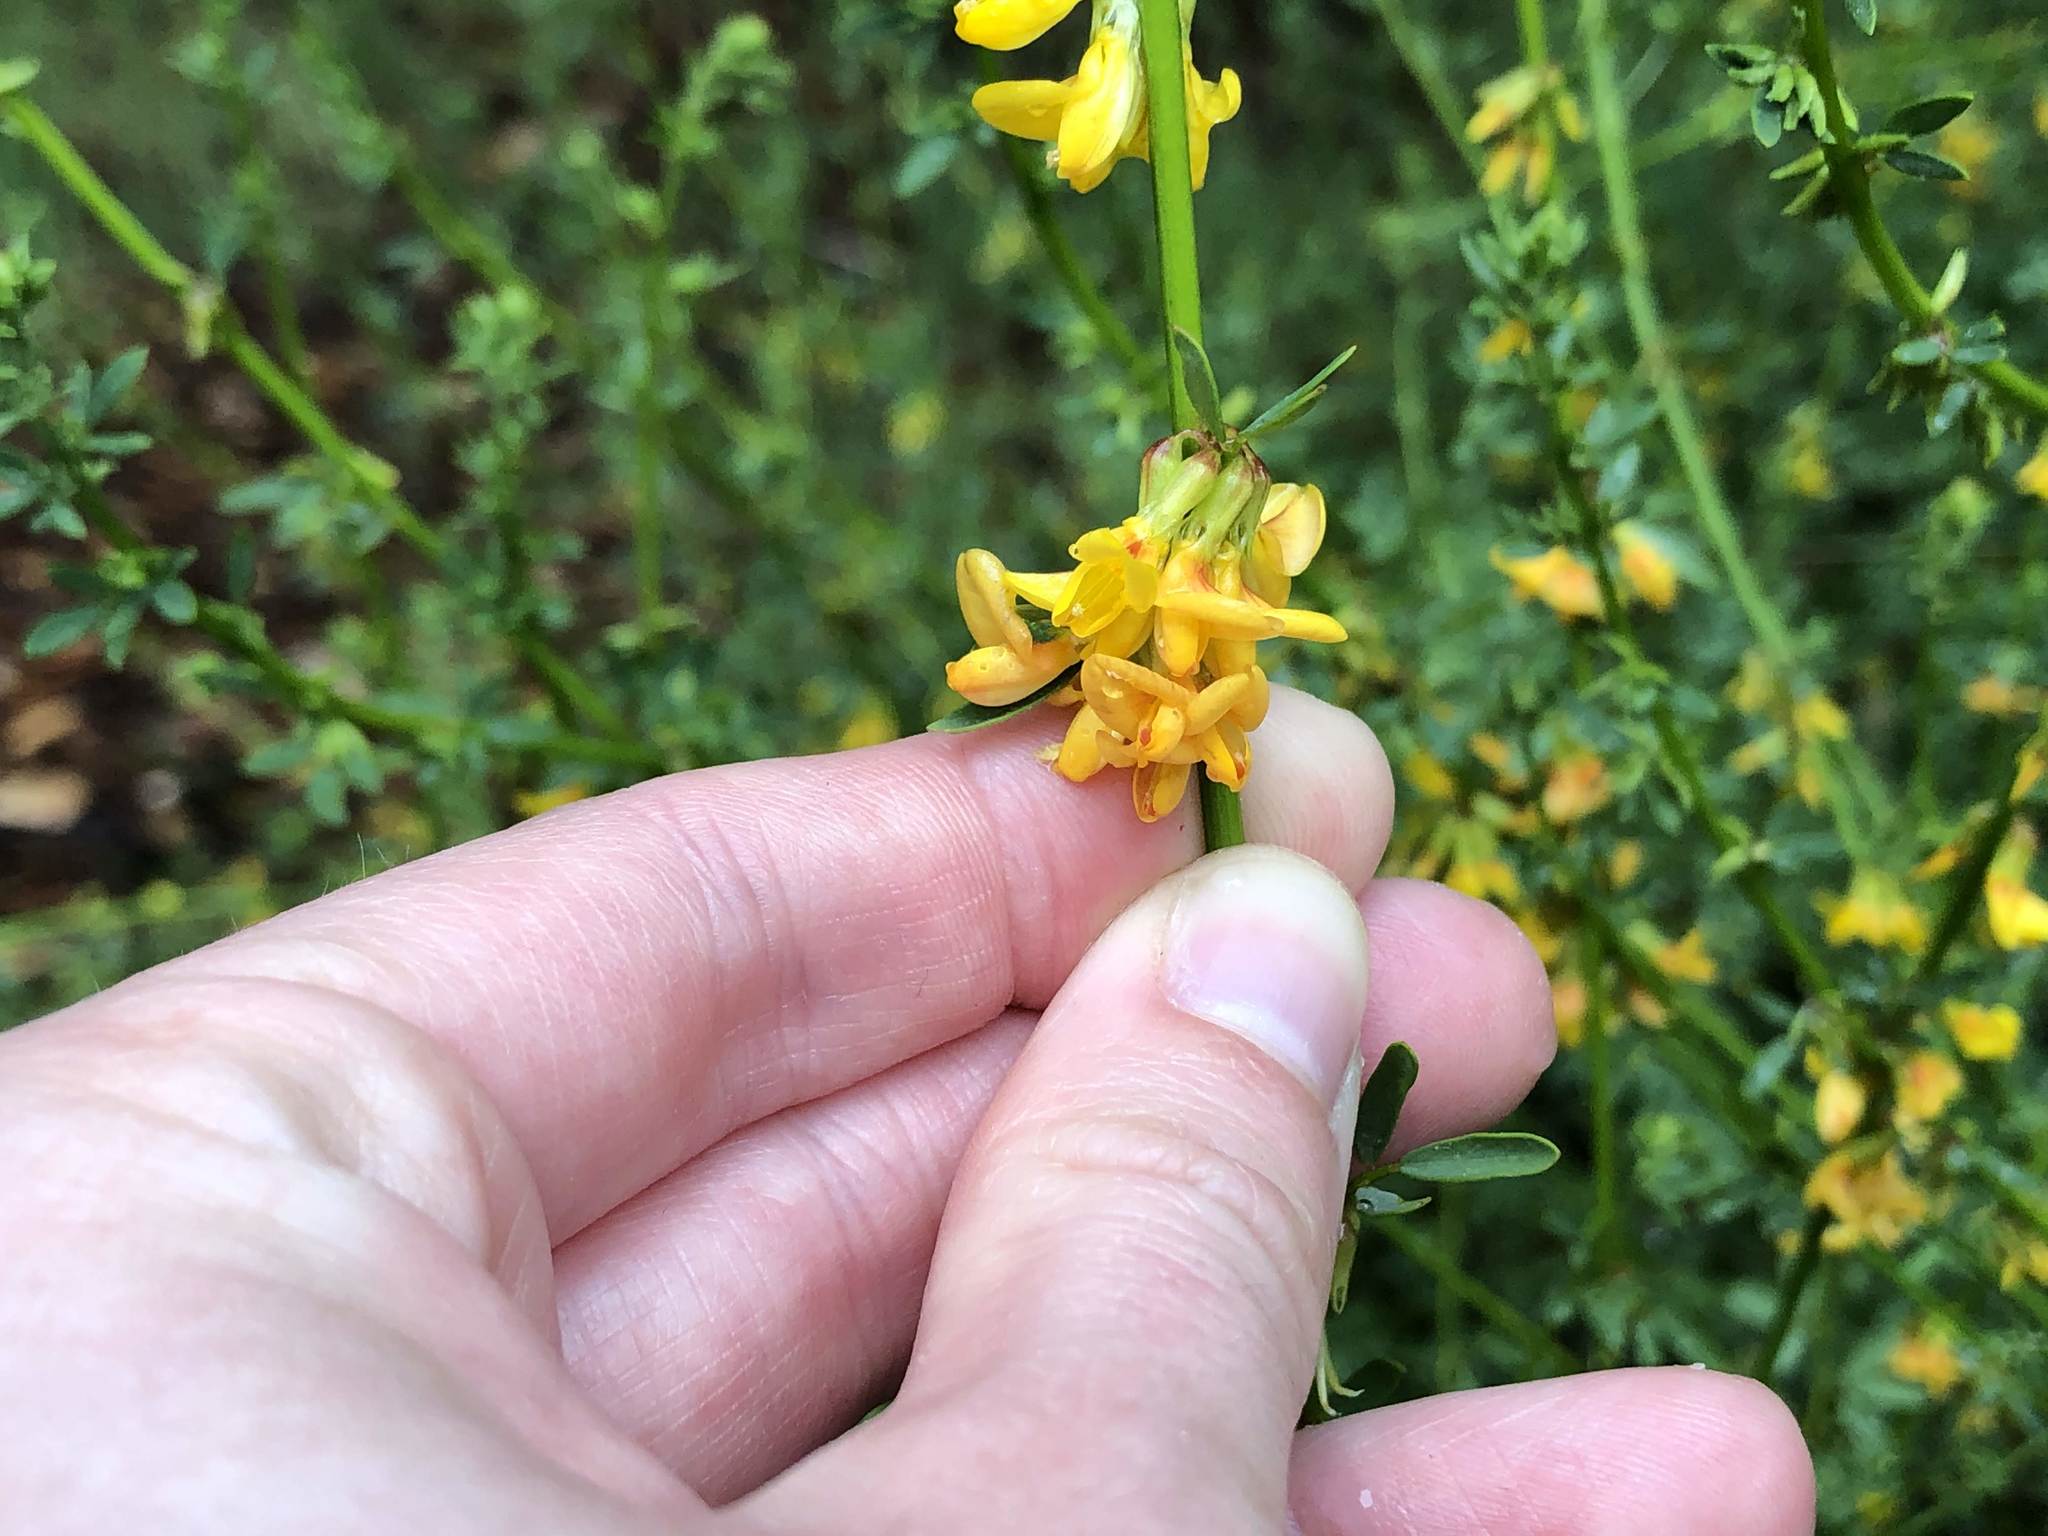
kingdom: Plantae
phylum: Tracheophyta
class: Magnoliopsida
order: Fabales
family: Fabaceae
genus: Acmispon
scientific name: Acmispon glaber
